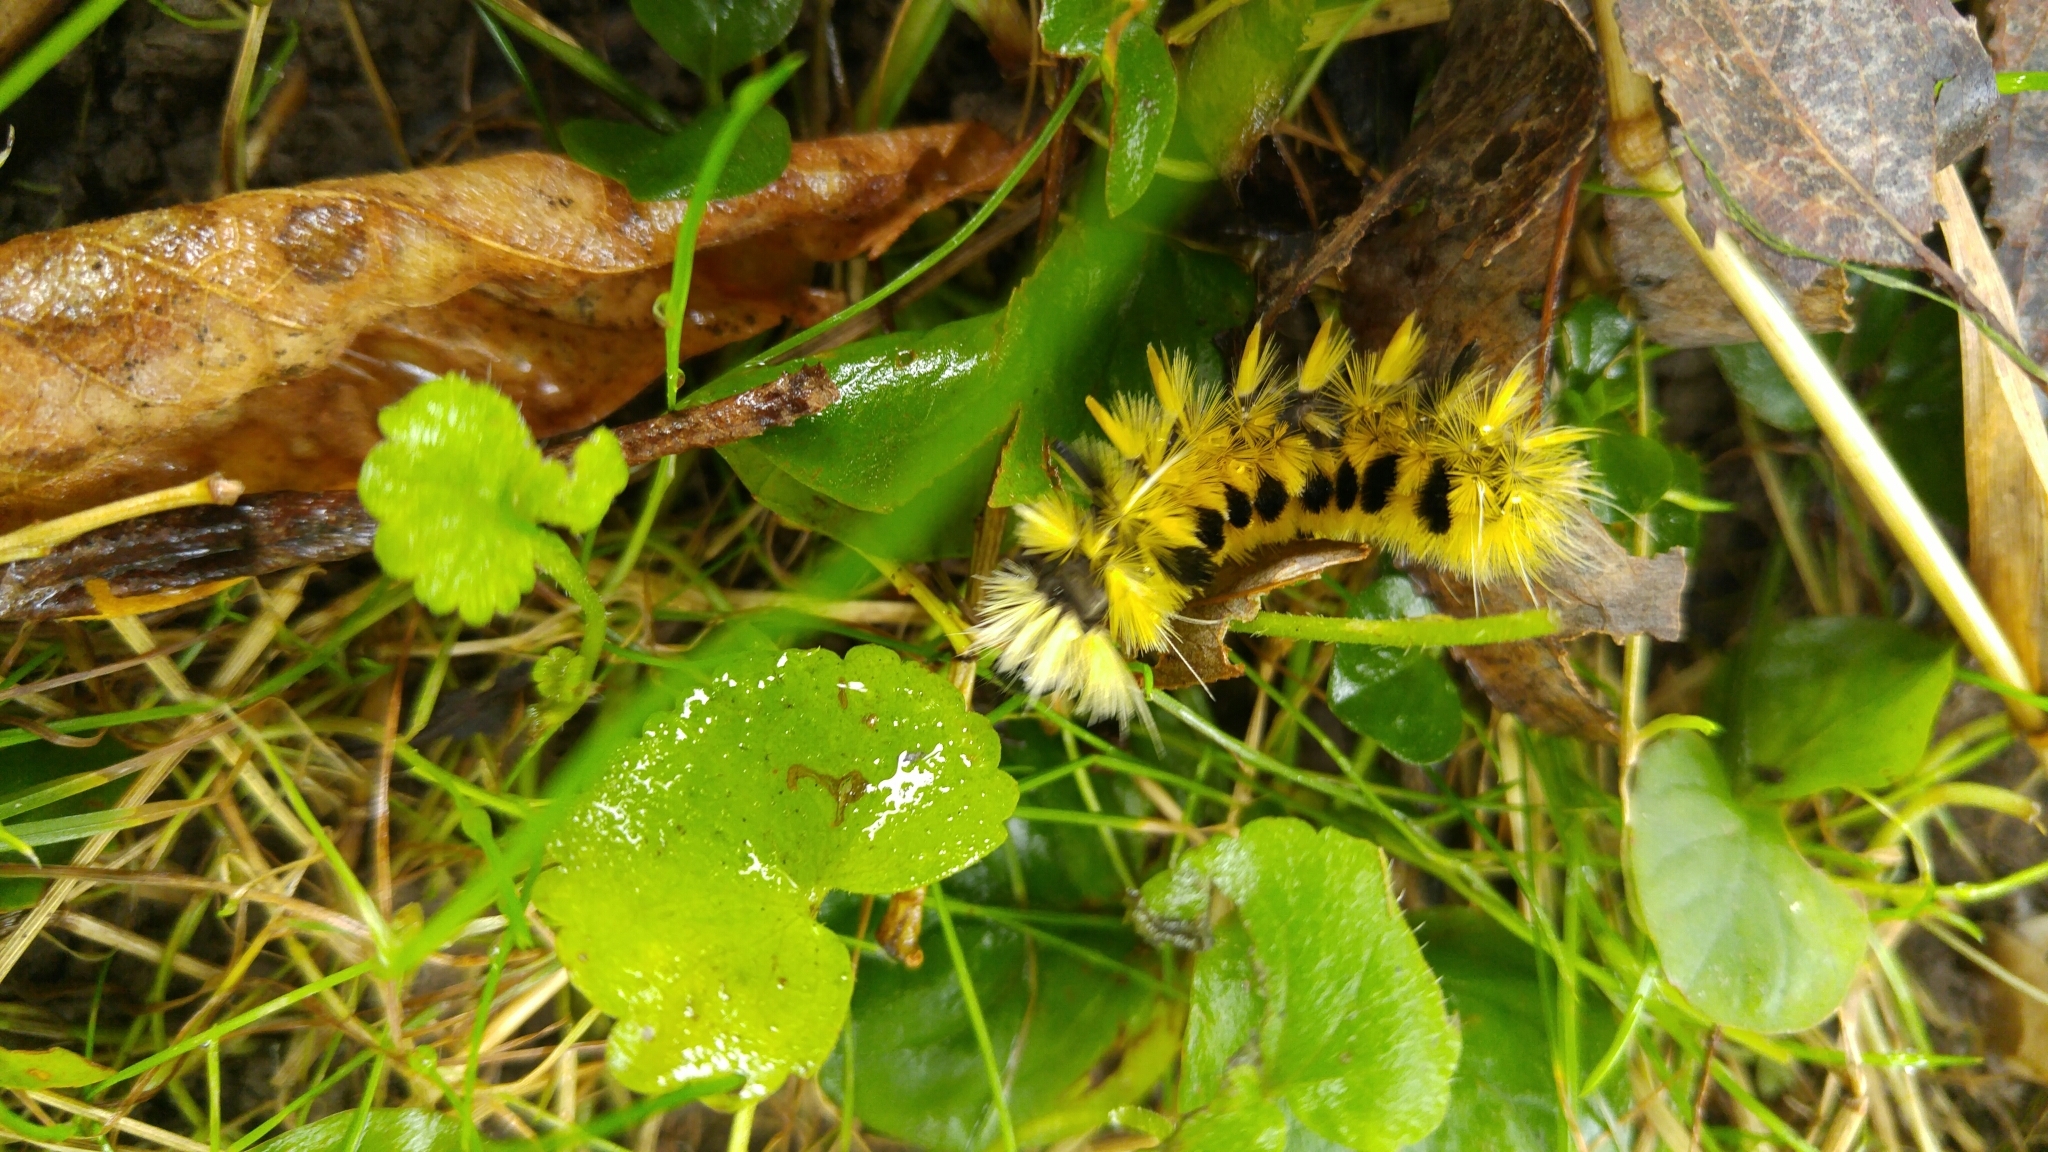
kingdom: Animalia
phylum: Arthropoda
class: Insecta
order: Lepidoptera
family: Erebidae
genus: Lophocampa
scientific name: Lophocampa maculata
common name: Spotted tussock moth
